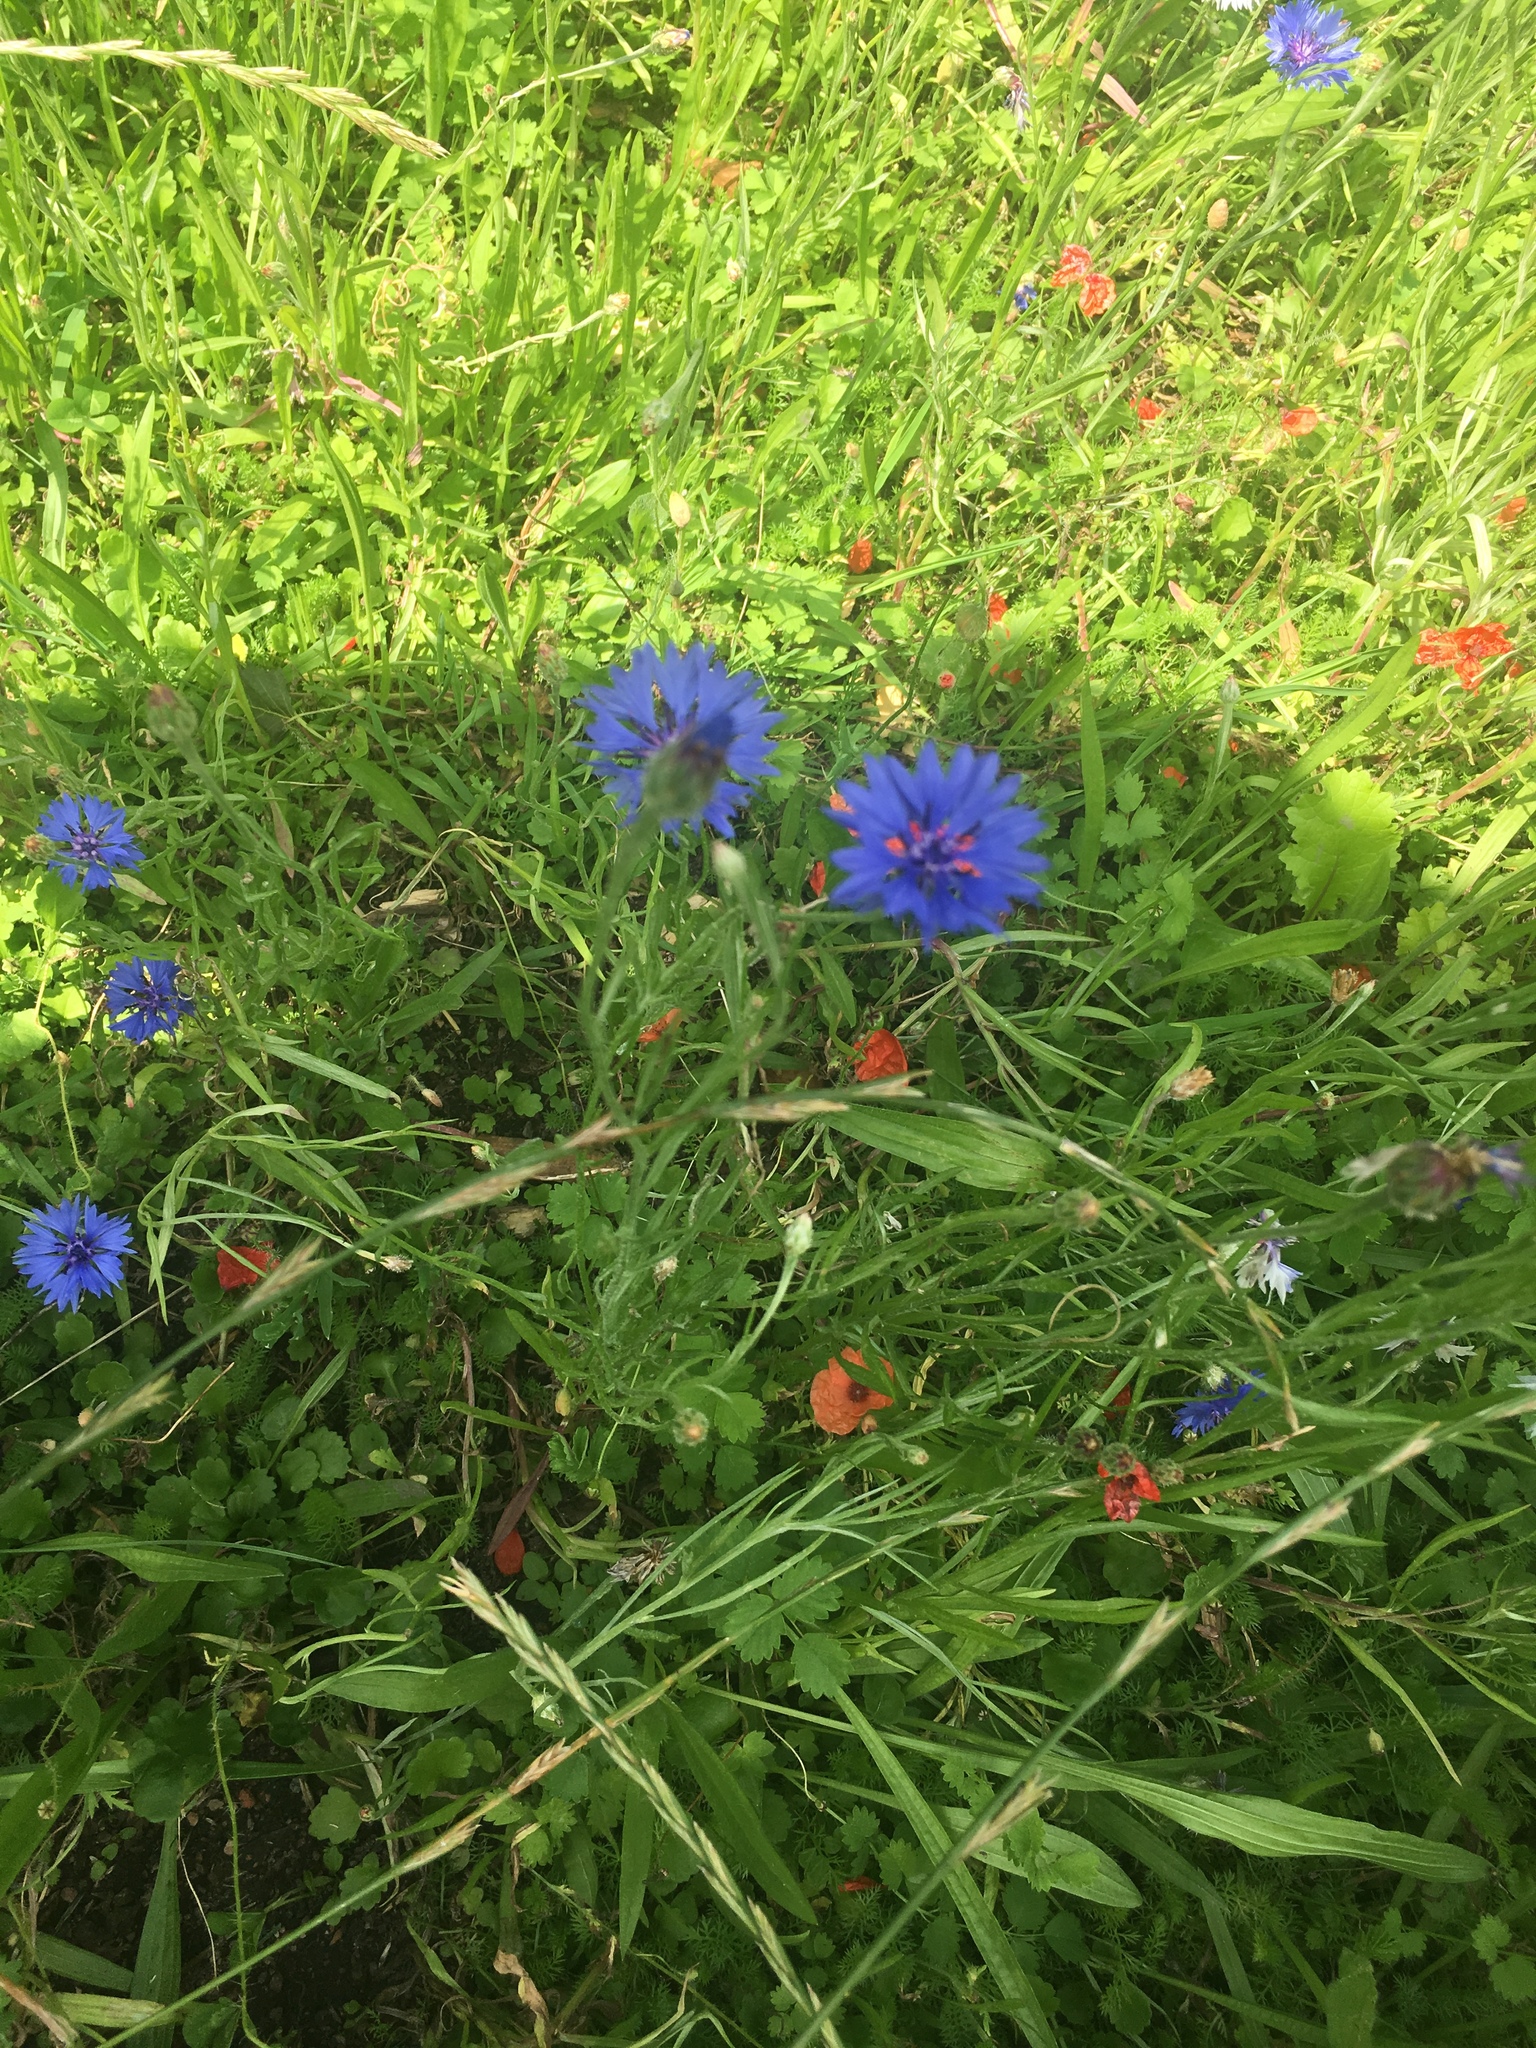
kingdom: Plantae
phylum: Tracheophyta
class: Magnoliopsida
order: Asterales
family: Asteraceae
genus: Centaurea
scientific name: Centaurea cyanus
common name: Cornflower
